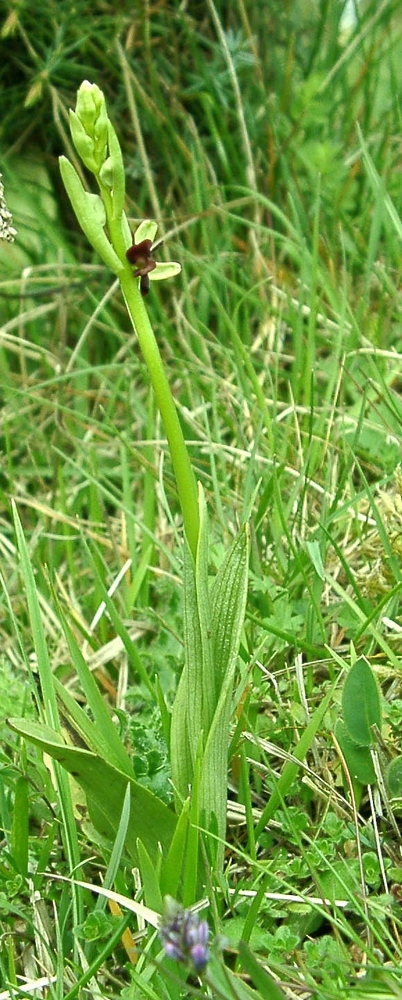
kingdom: Plantae
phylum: Tracheophyta
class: Liliopsida
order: Asparagales
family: Orchidaceae
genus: Ophrys
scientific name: Ophrys insectifera
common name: Fly orchid
